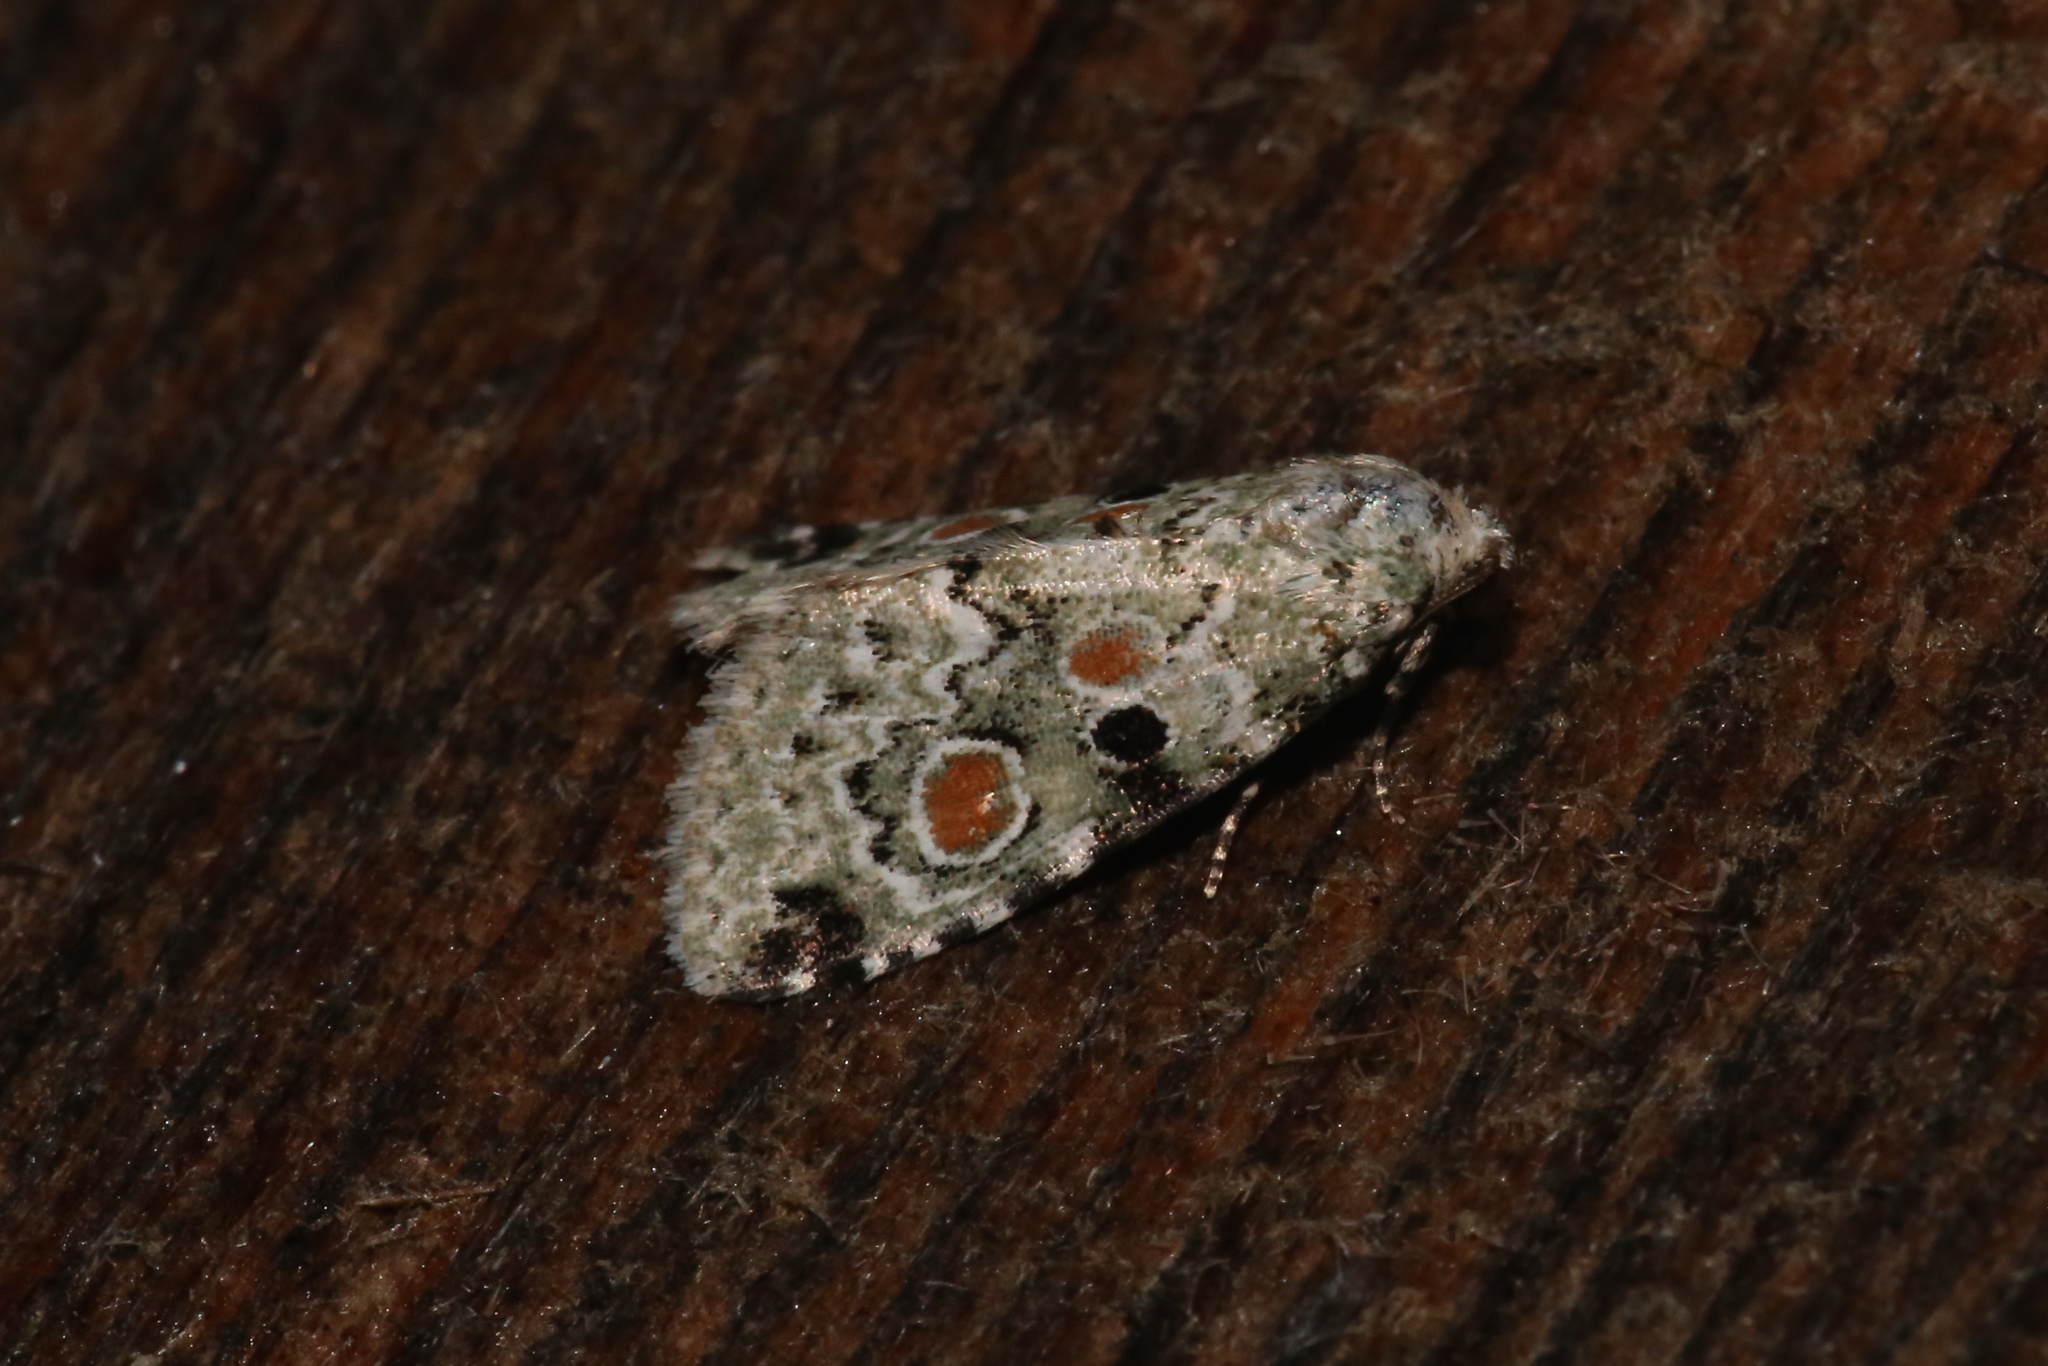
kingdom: Animalia
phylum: Arthropoda
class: Insecta
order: Lepidoptera
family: Noctuidae
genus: Maliattha
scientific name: Maliattha concinnimacula
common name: Red-spotted glyph
